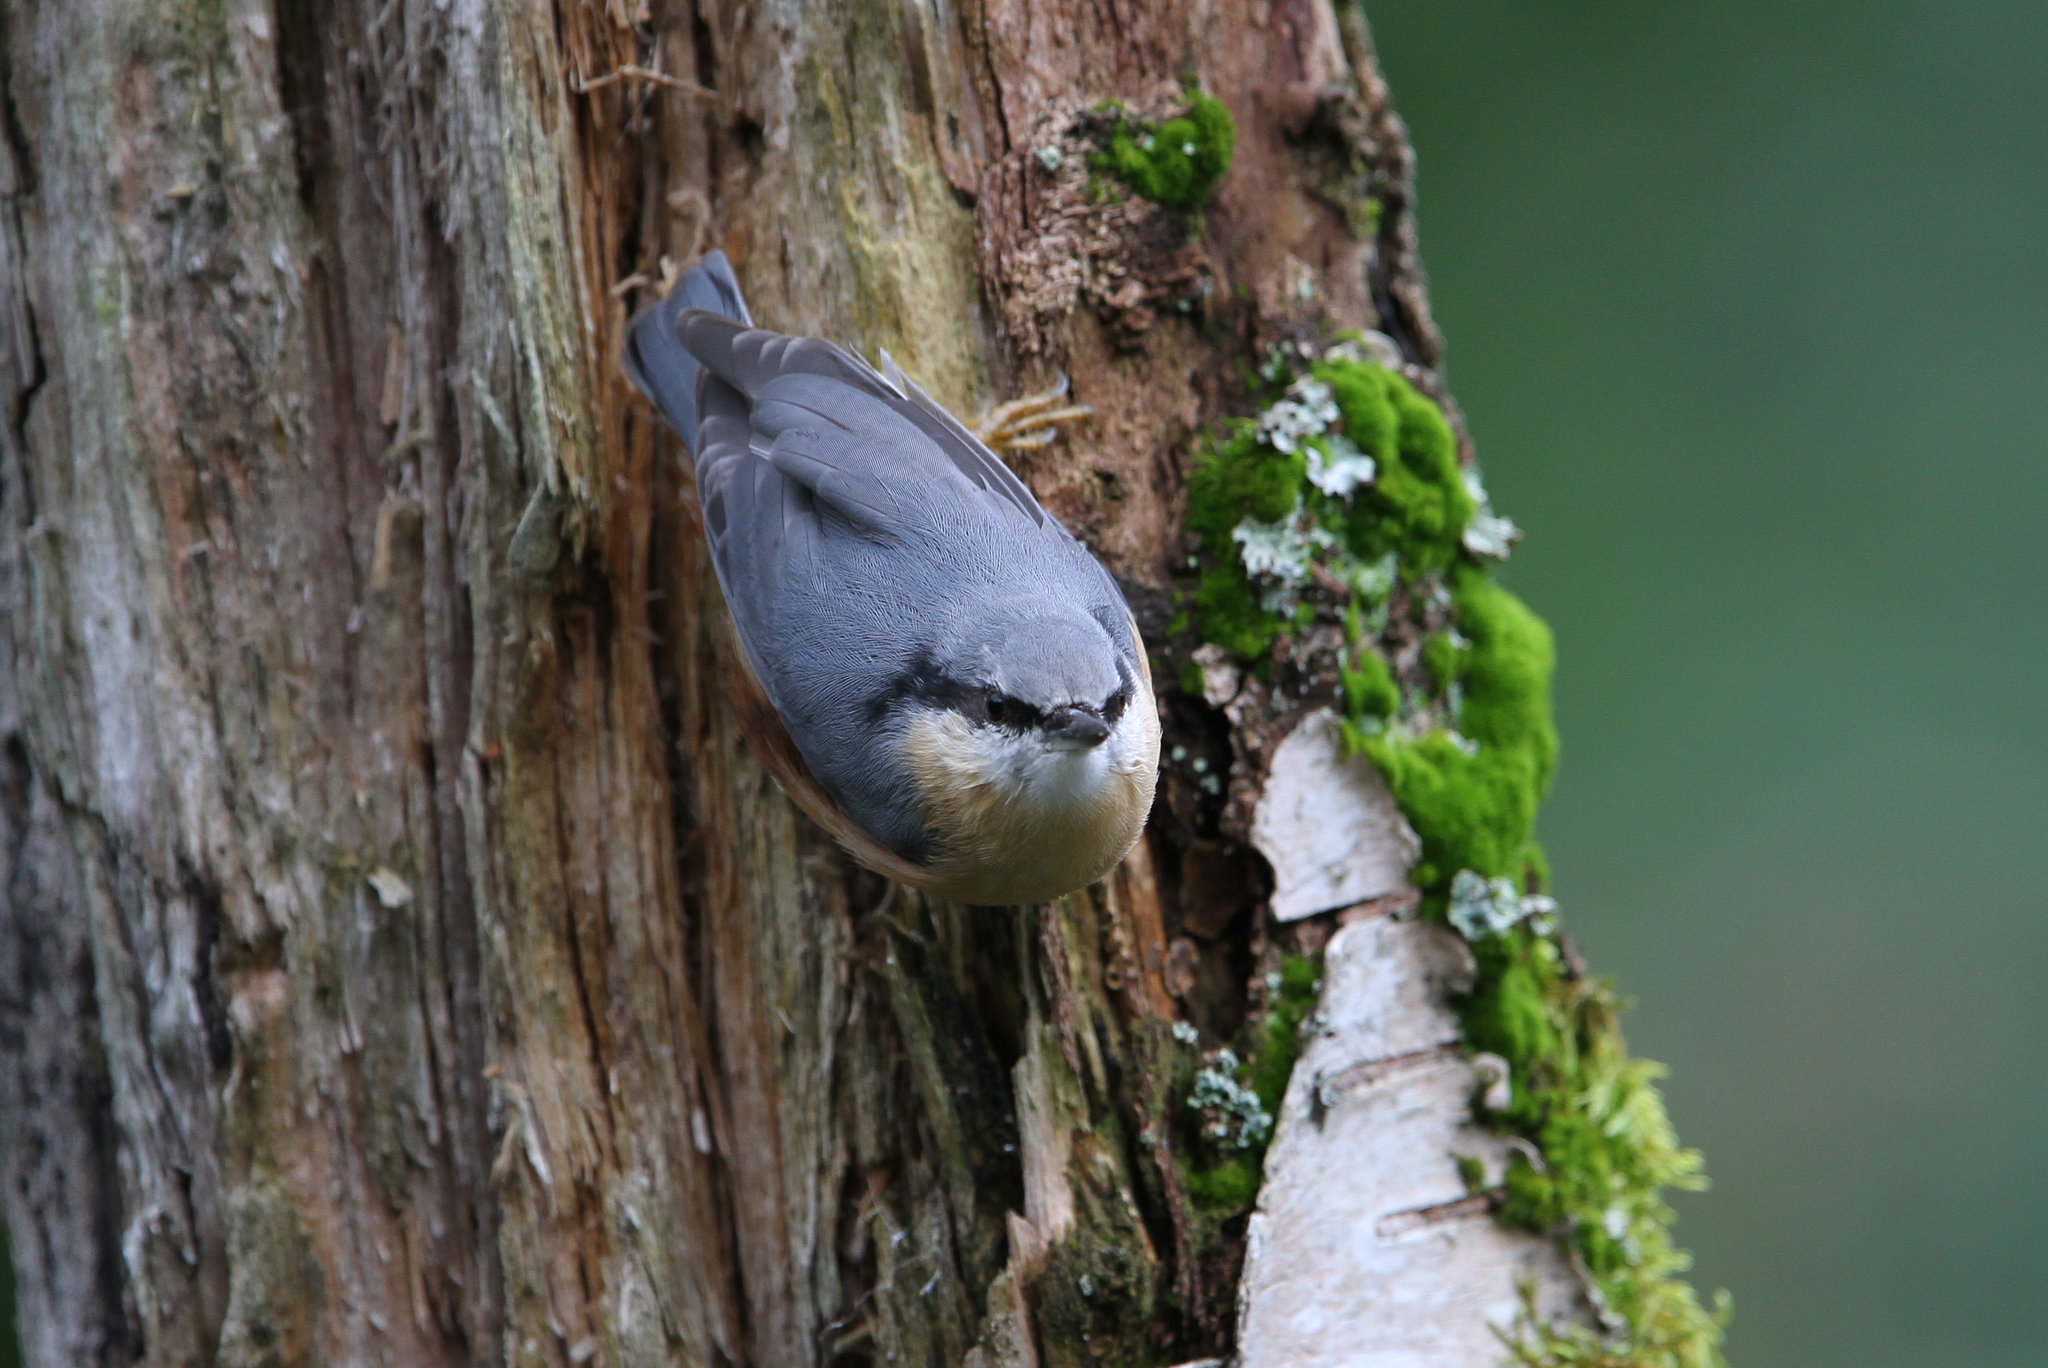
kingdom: Animalia
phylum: Chordata
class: Aves
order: Passeriformes
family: Sittidae
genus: Sitta
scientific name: Sitta europaea
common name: Eurasian nuthatch
